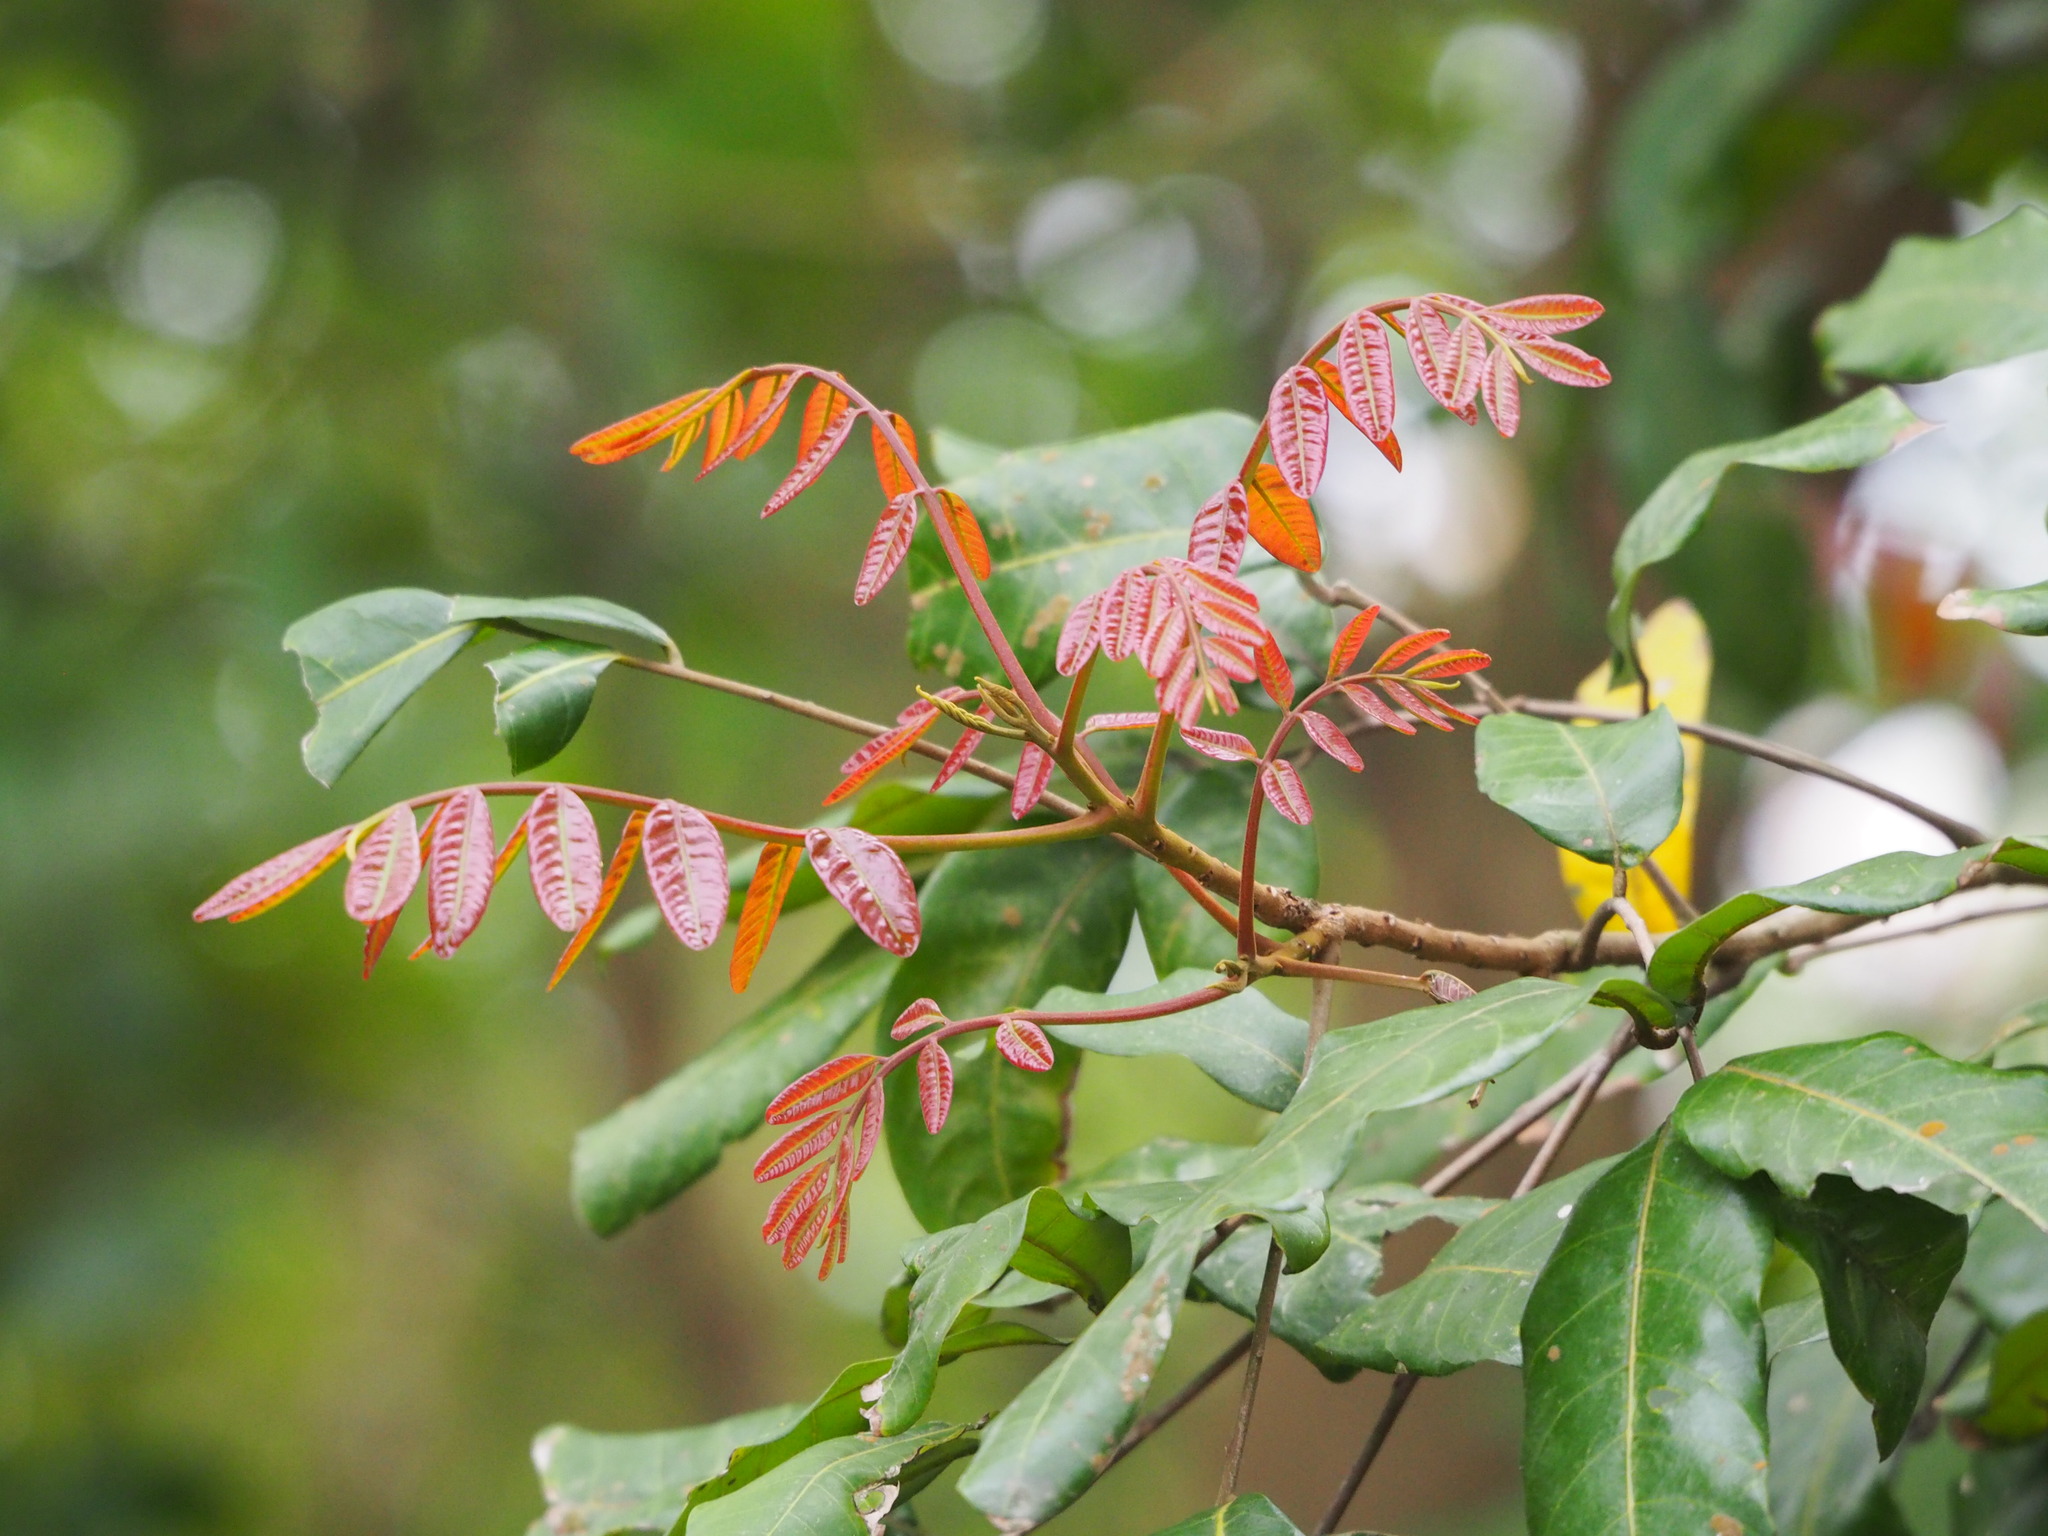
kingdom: Plantae
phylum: Tracheophyta
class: Magnoliopsida
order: Sapindales
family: Sapindaceae
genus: Dimocarpus
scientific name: Dimocarpus longan
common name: Longan
